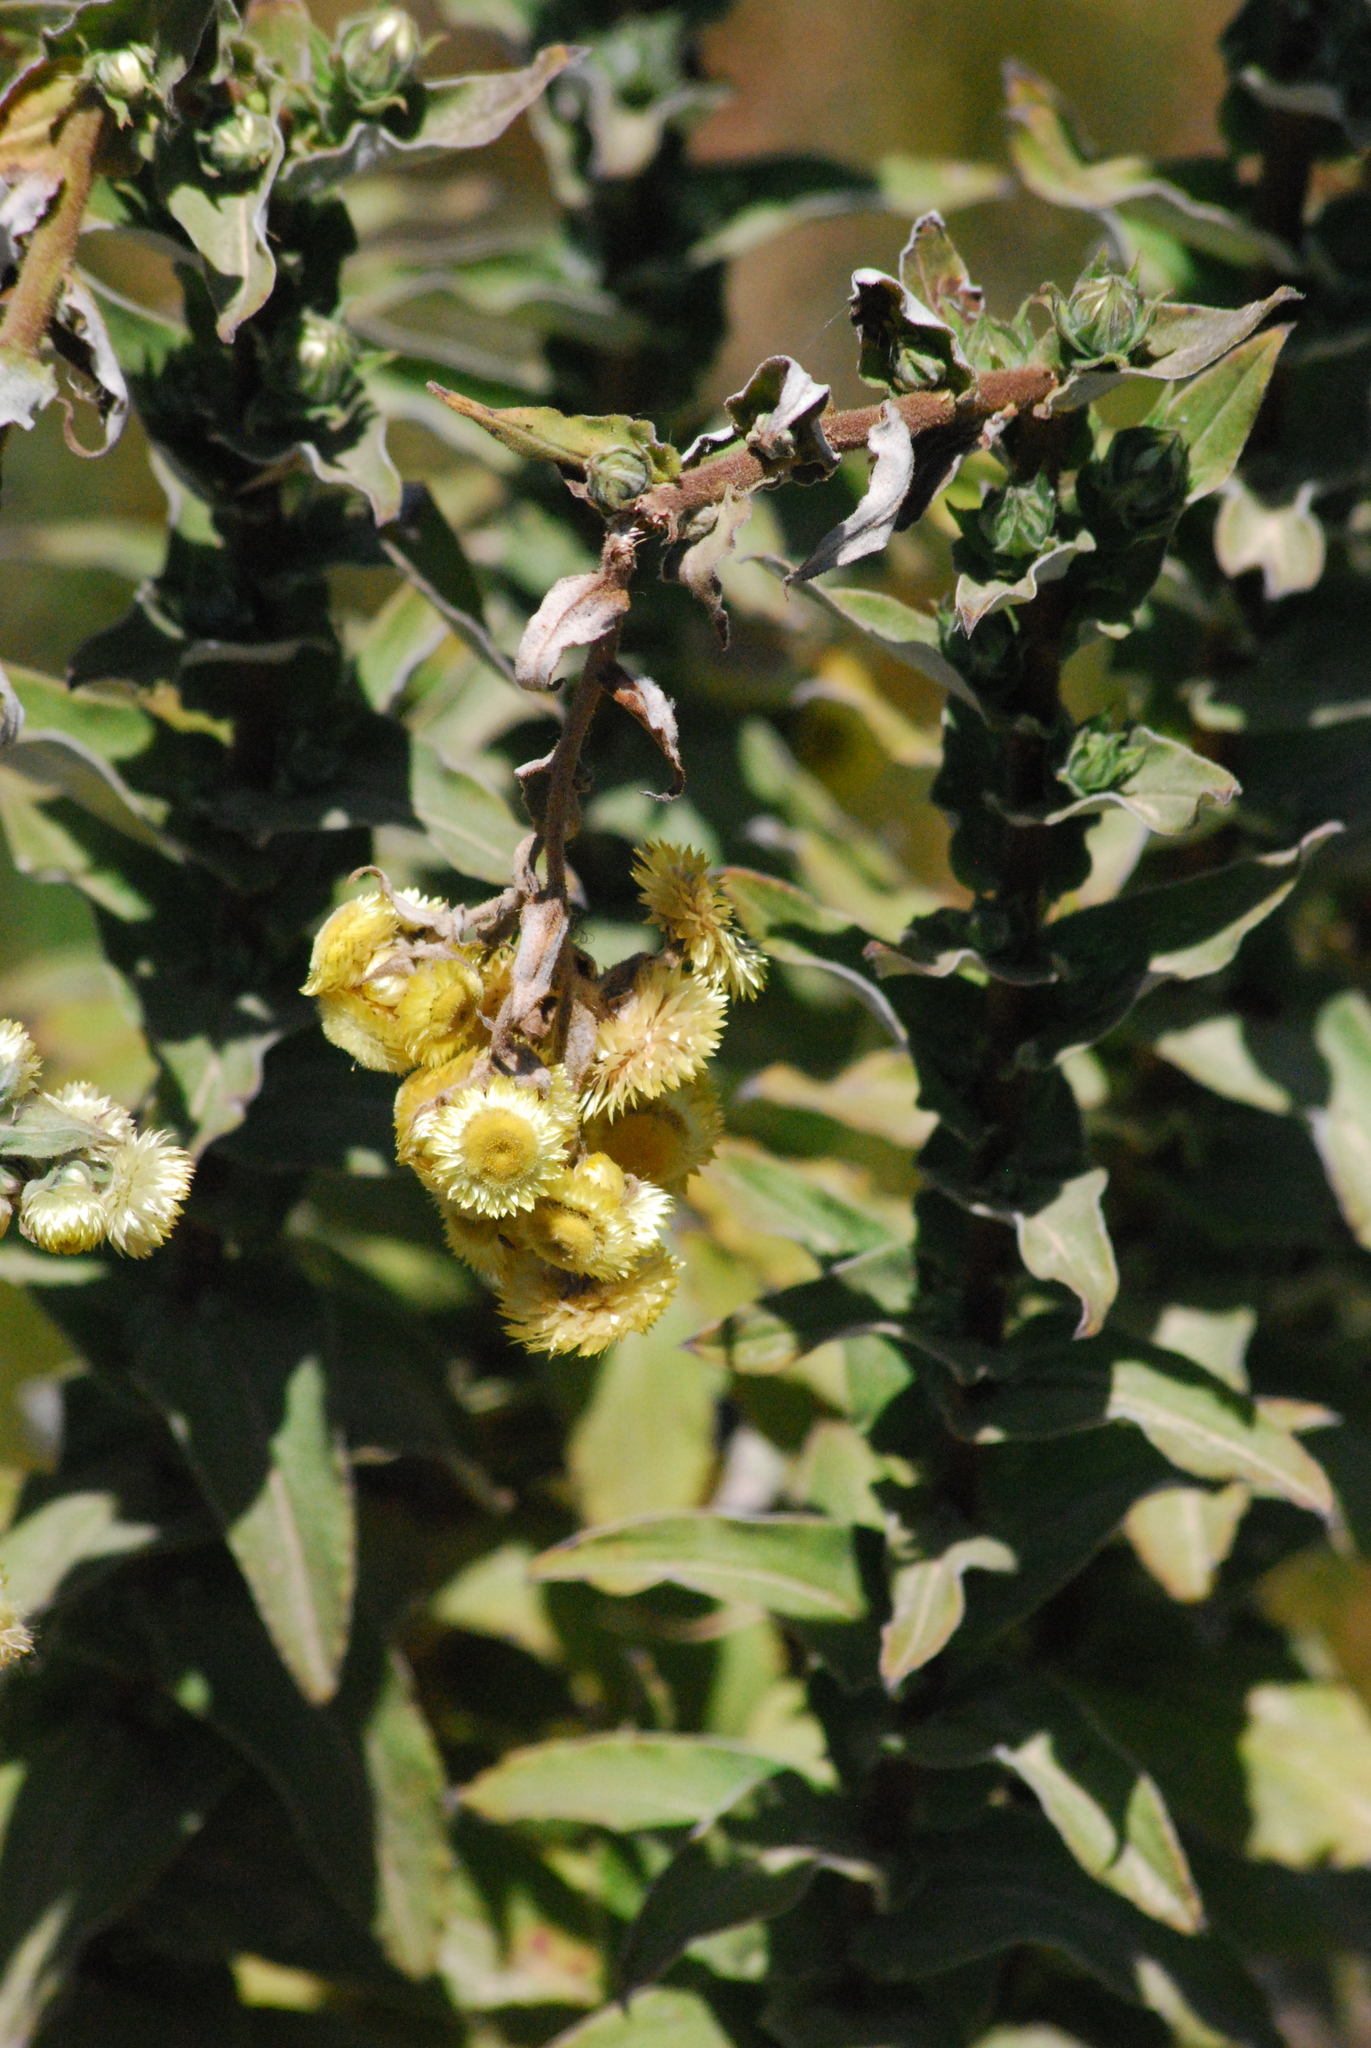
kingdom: Plantae
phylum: Tracheophyta
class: Magnoliopsida
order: Asterales
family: Asteraceae
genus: Helichrysum
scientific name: Helichrysum foetidum
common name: Stinking everlasting
